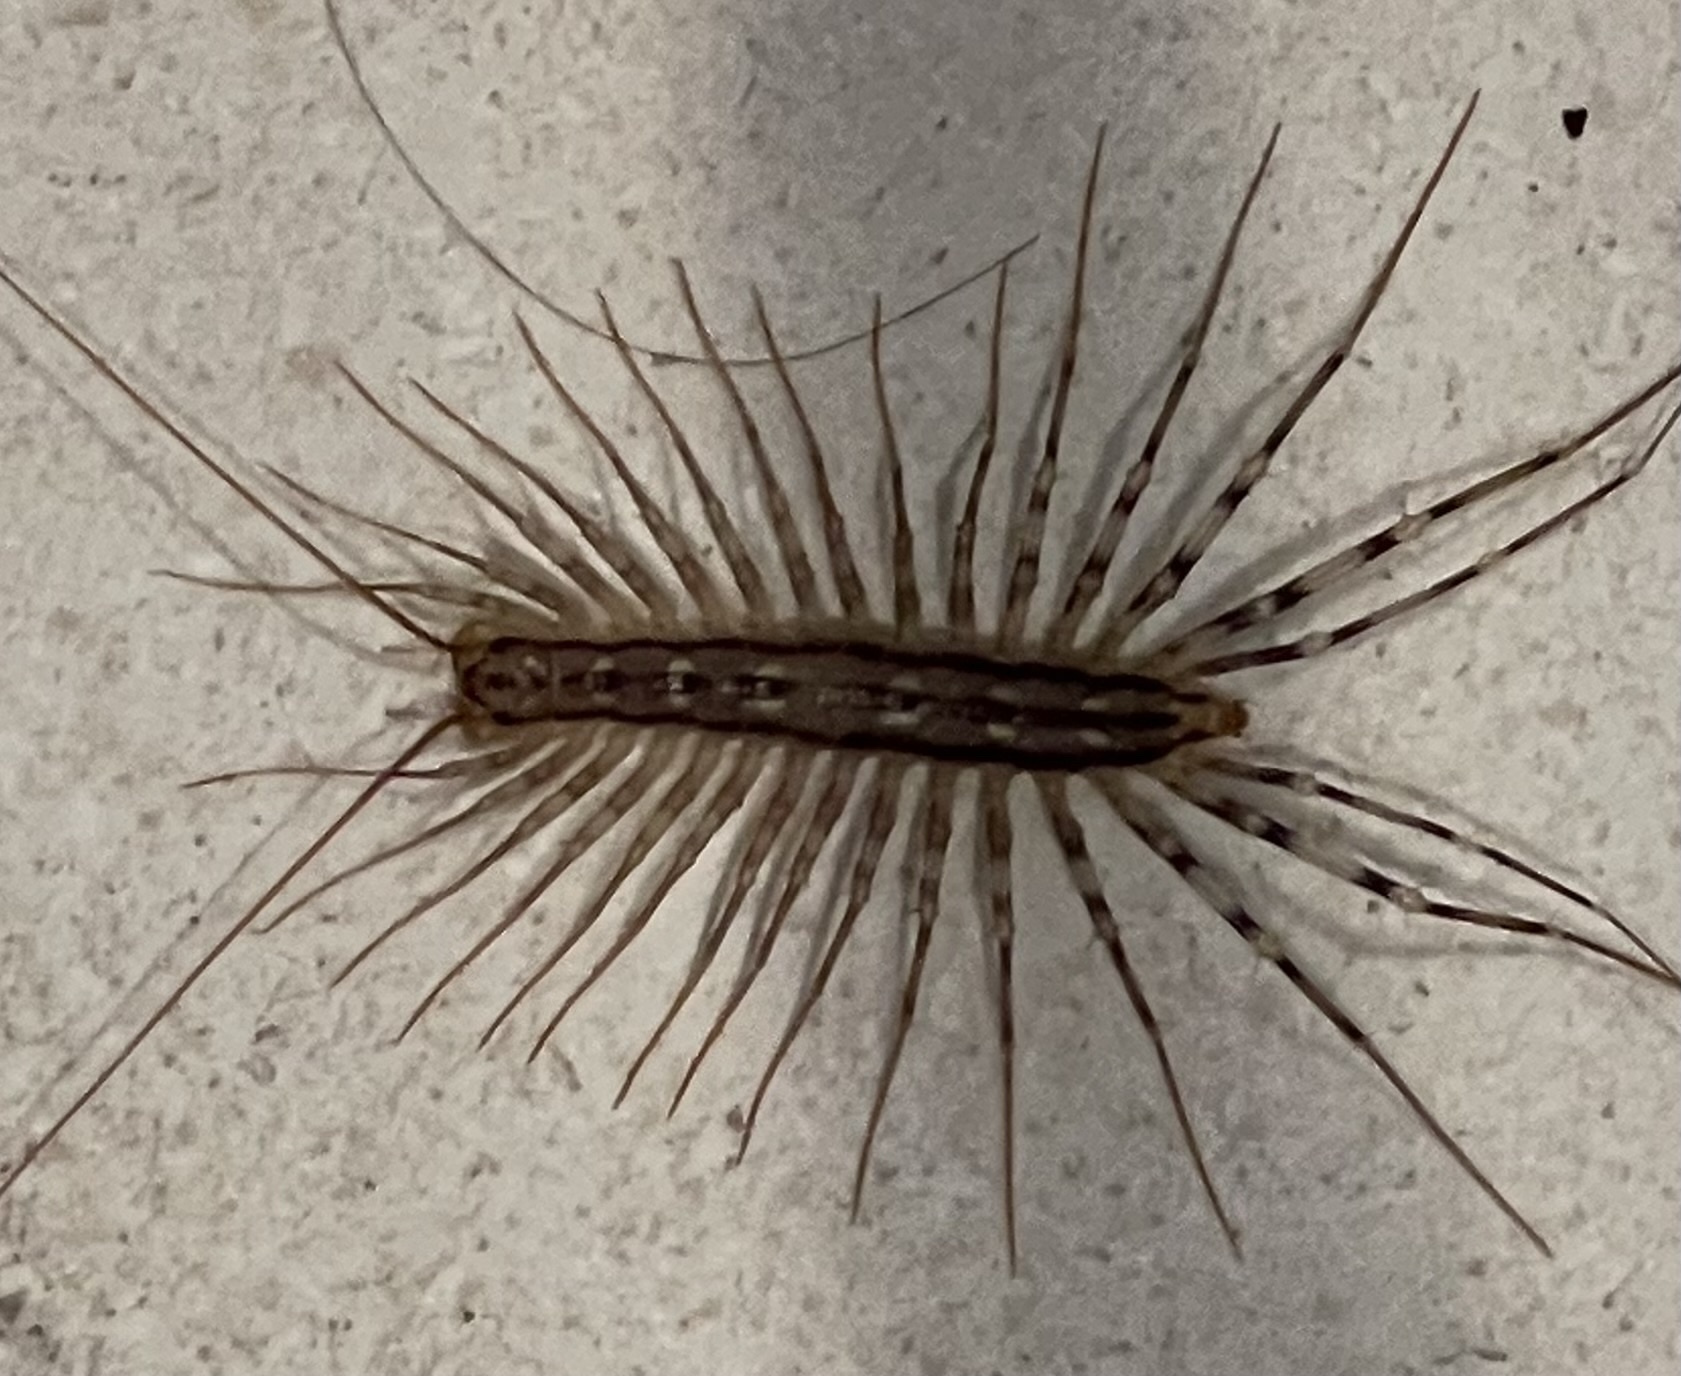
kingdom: Animalia
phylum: Arthropoda
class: Chilopoda
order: Scutigeromorpha
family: Scutigeridae
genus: Scutigera
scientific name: Scutigera coleoptrata
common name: House centipede
